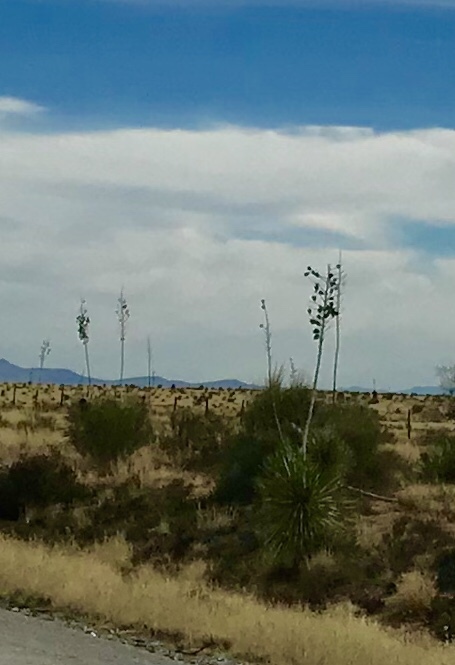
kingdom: Plantae
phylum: Tracheophyta
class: Liliopsida
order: Asparagales
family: Asparagaceae
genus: Yucca
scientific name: Yucca elata
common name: Palmella
